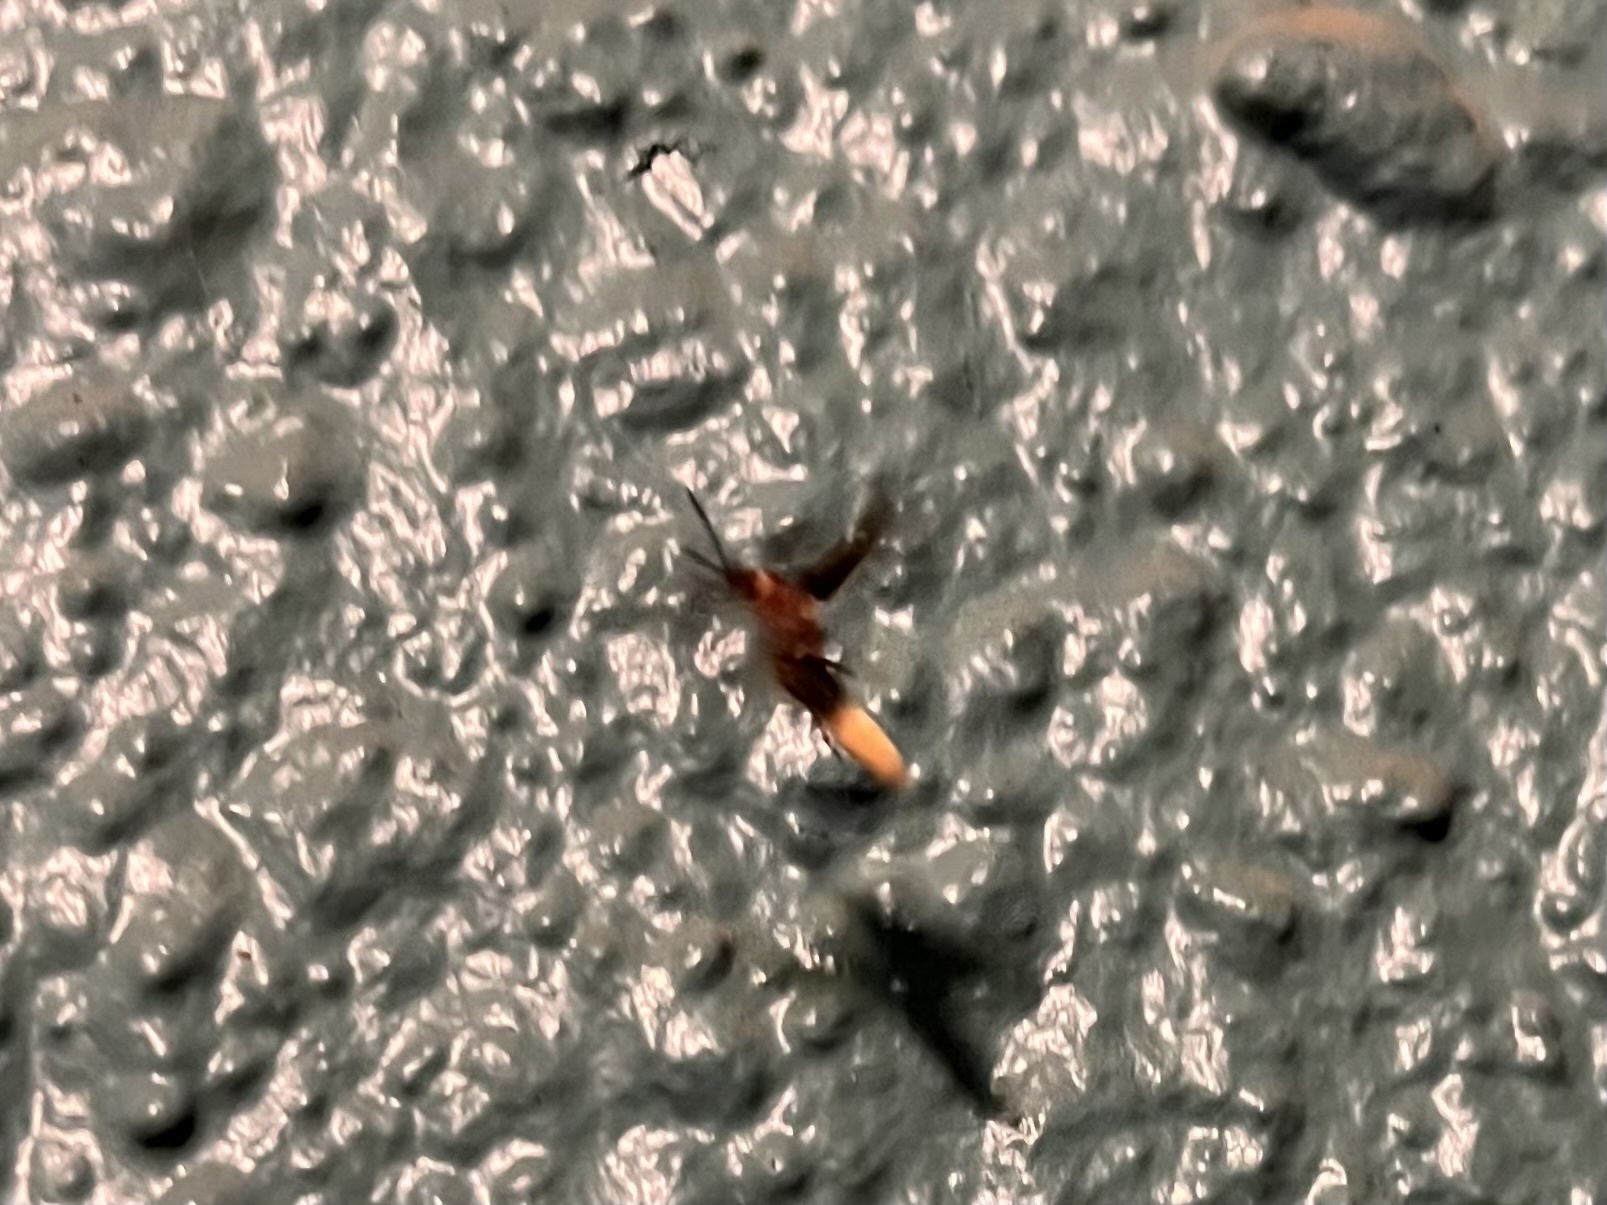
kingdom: Animalia
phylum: Arthropoda
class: Insecta
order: Coleoptera
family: Lampyridae
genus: Photinus
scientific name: Photinus pyralis
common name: Big dipper firefly
